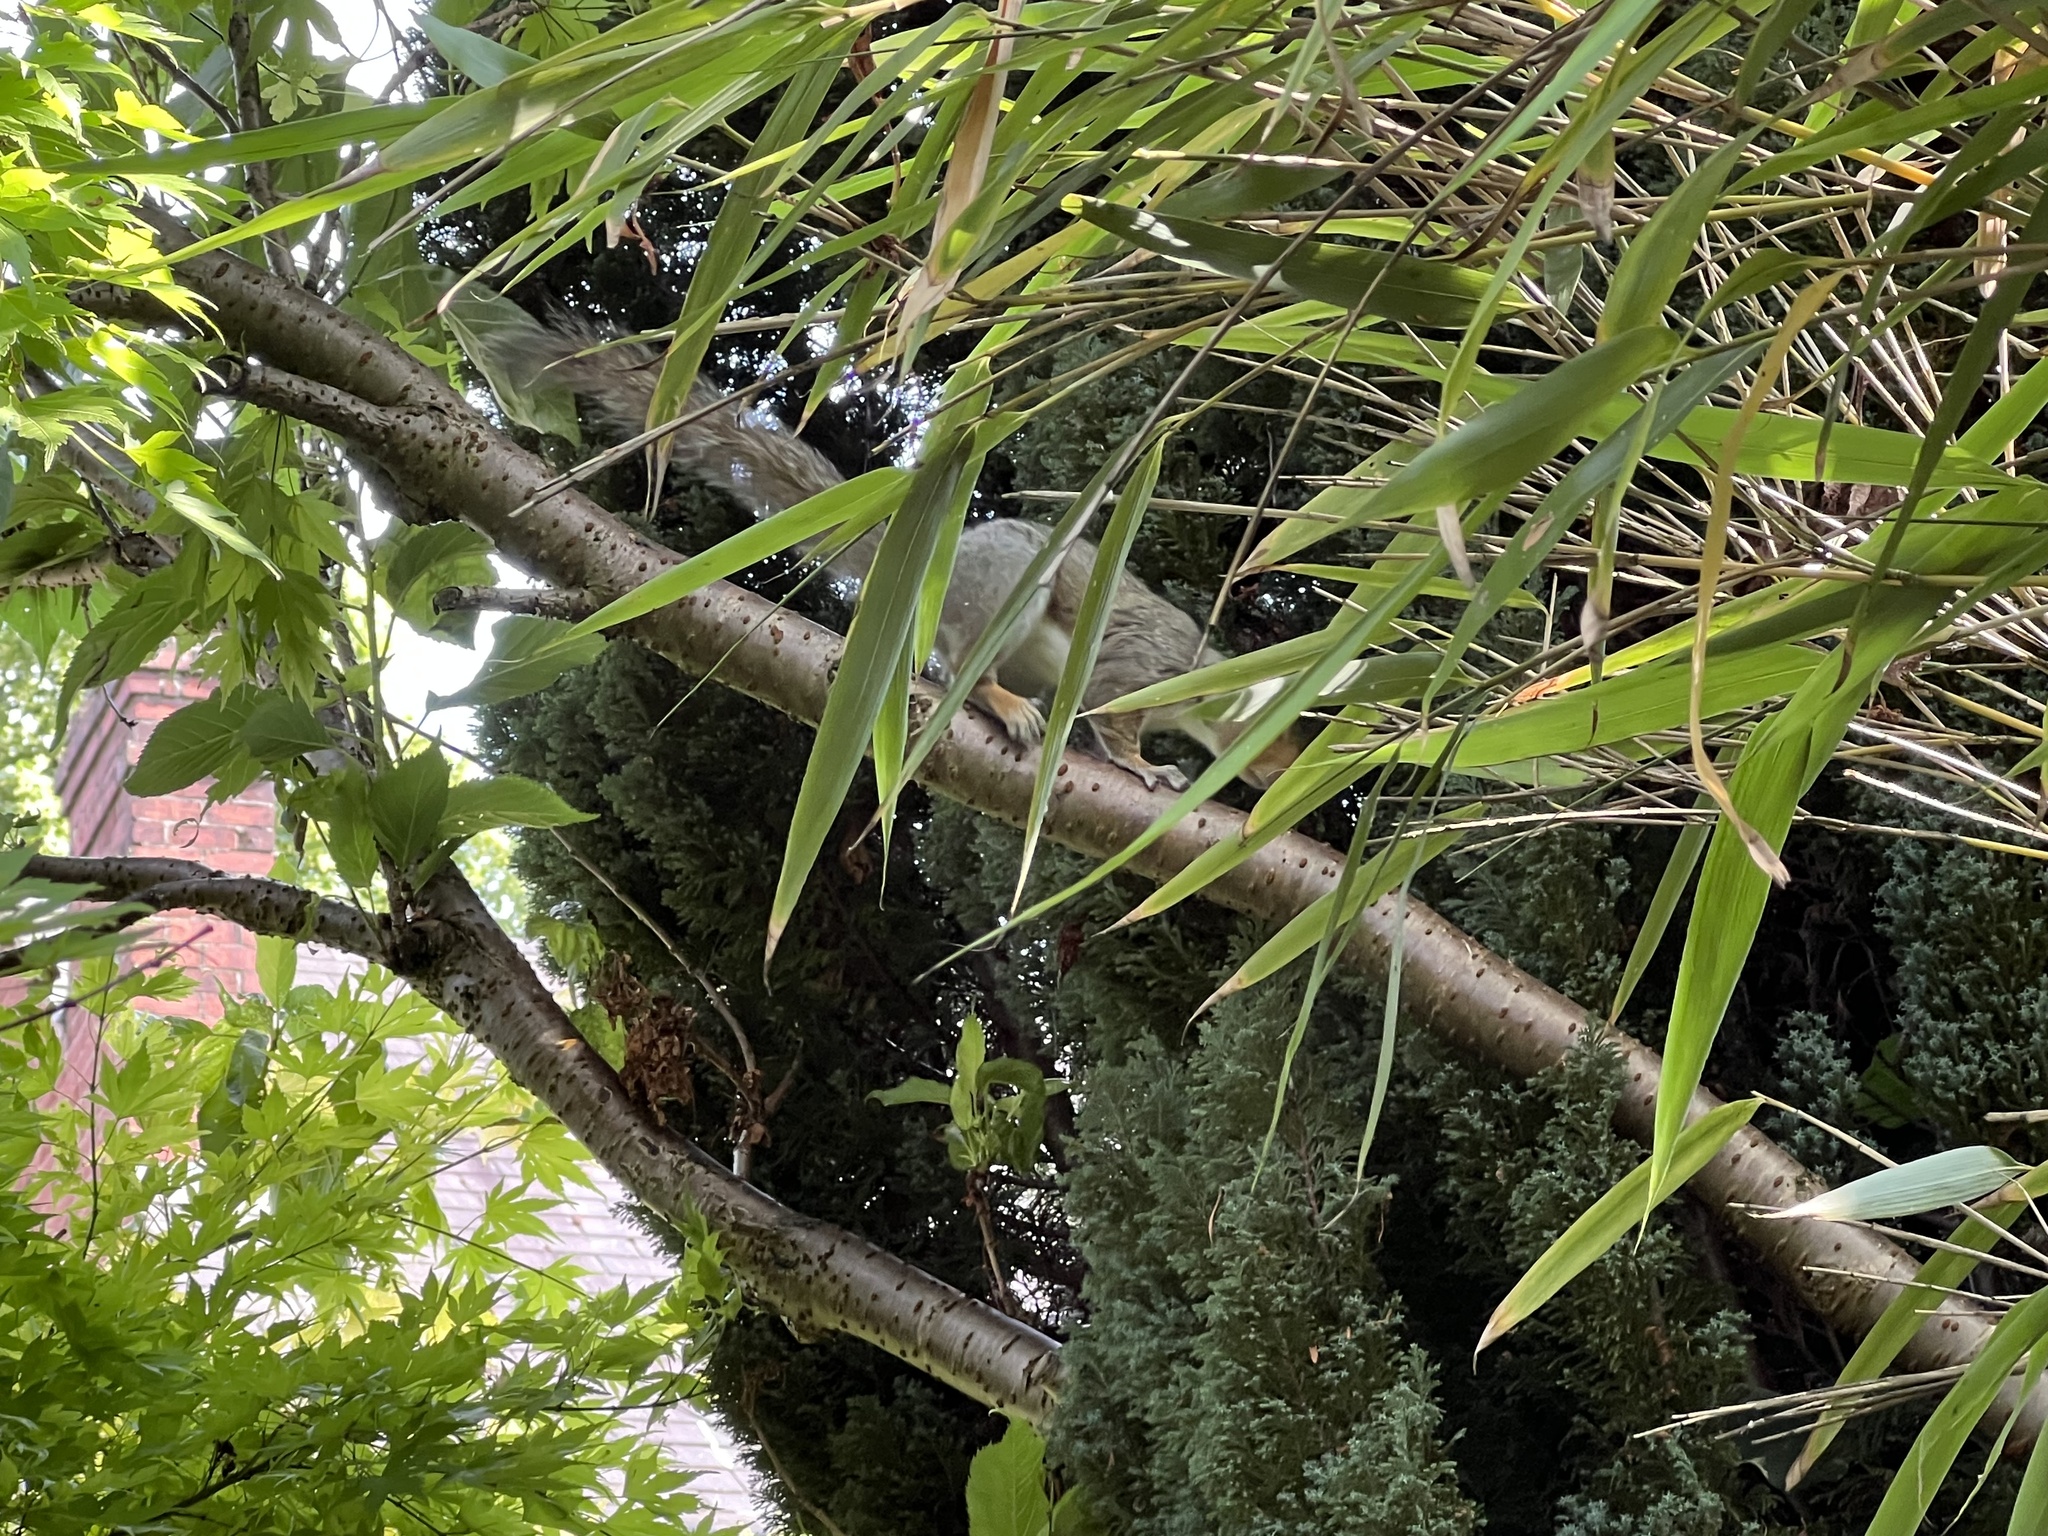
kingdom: Animalia
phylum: Chordata
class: Mammalia
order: Rodentia
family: Sciuridae
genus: Sciurus
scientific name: Sciurus carolinensis
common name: Eastern gray squirrel
